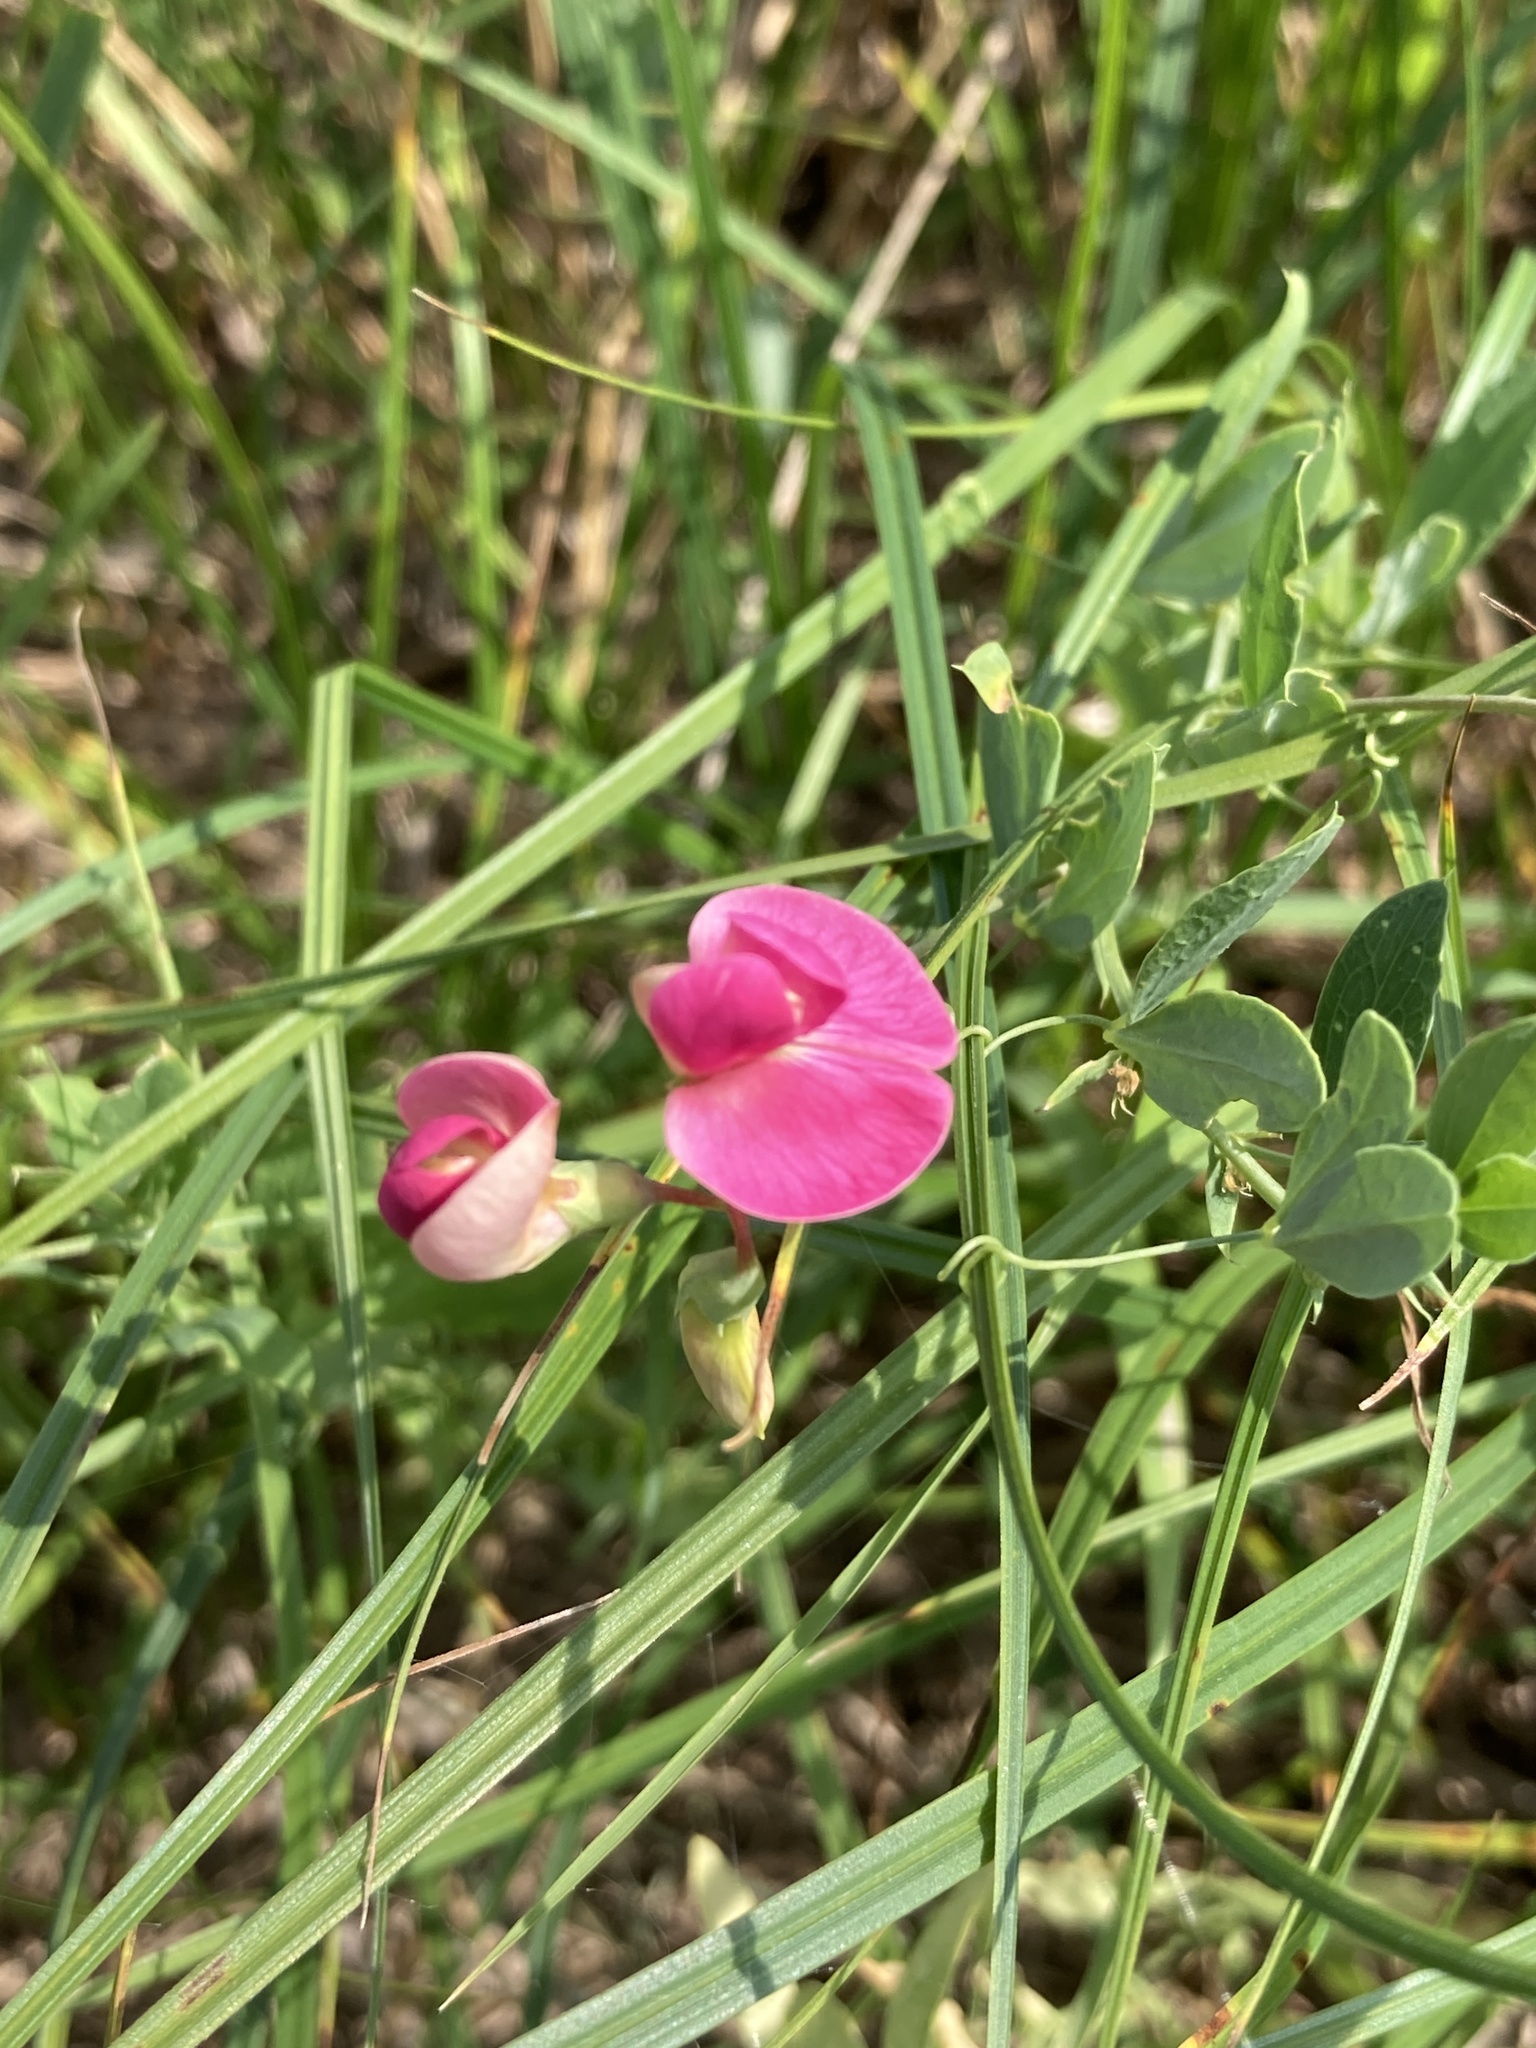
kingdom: Plantae
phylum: Tracheophyta
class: Magnoliopsida
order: Fabales
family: Fabaceae
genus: Lathyrus
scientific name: Lathyrus tuberosus
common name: Tuberous pea
